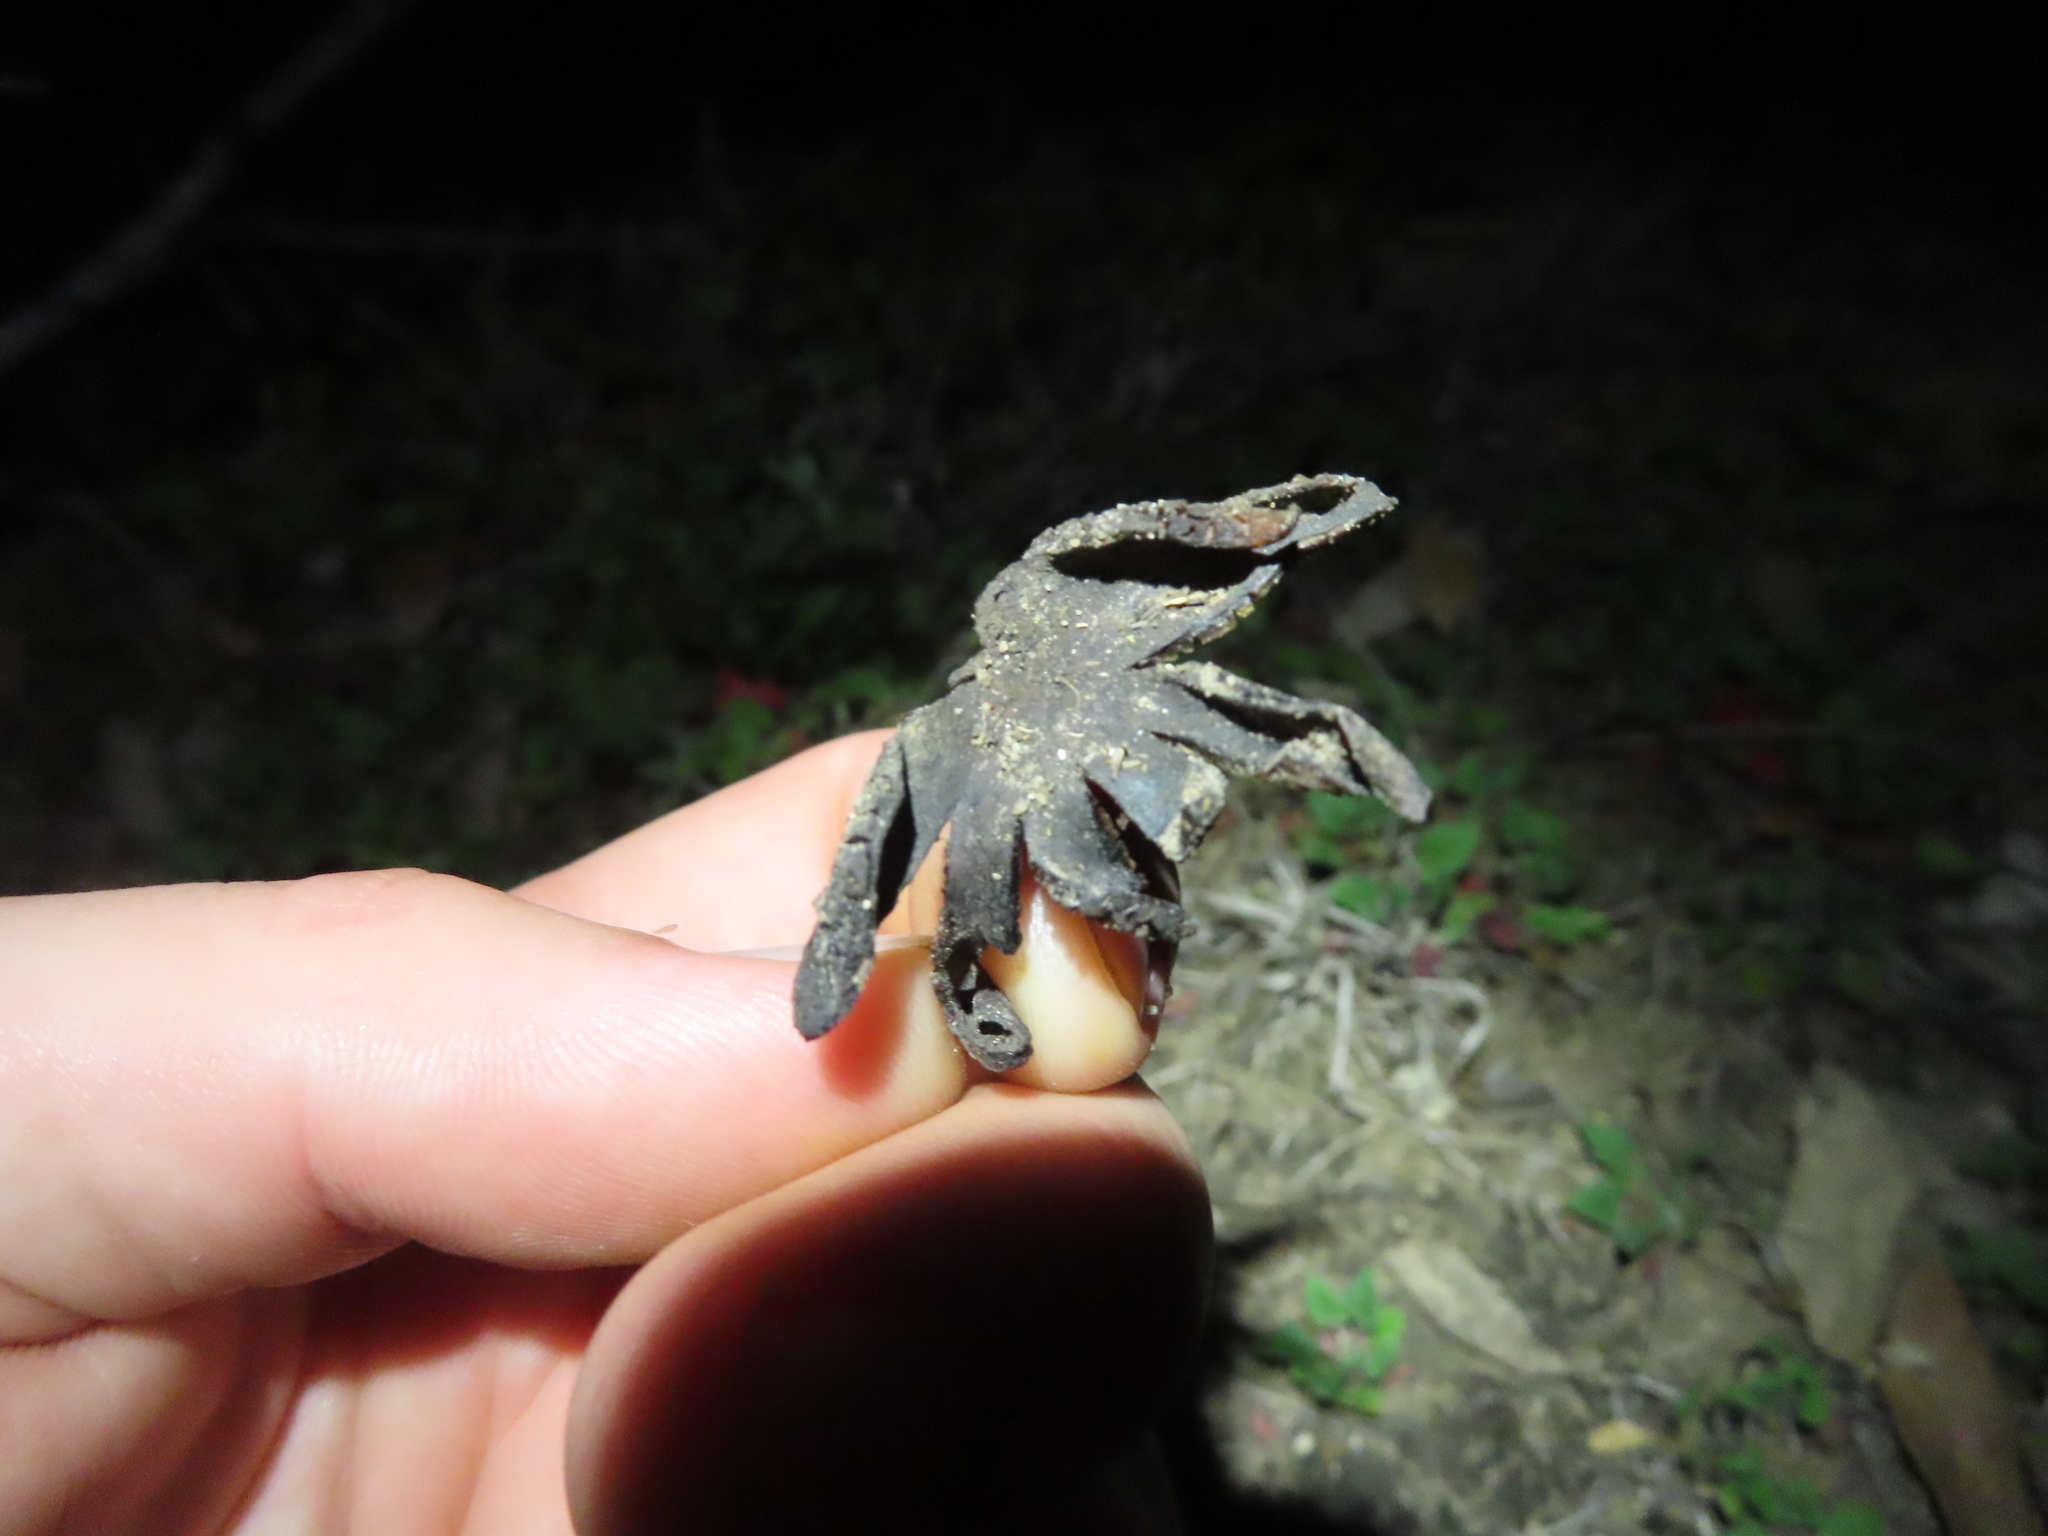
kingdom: Fungi
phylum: Basidiomycota
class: Agaricomycetes
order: Boletales
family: Diplocystidiaceae
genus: Astraeus
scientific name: Astraeus morganii
